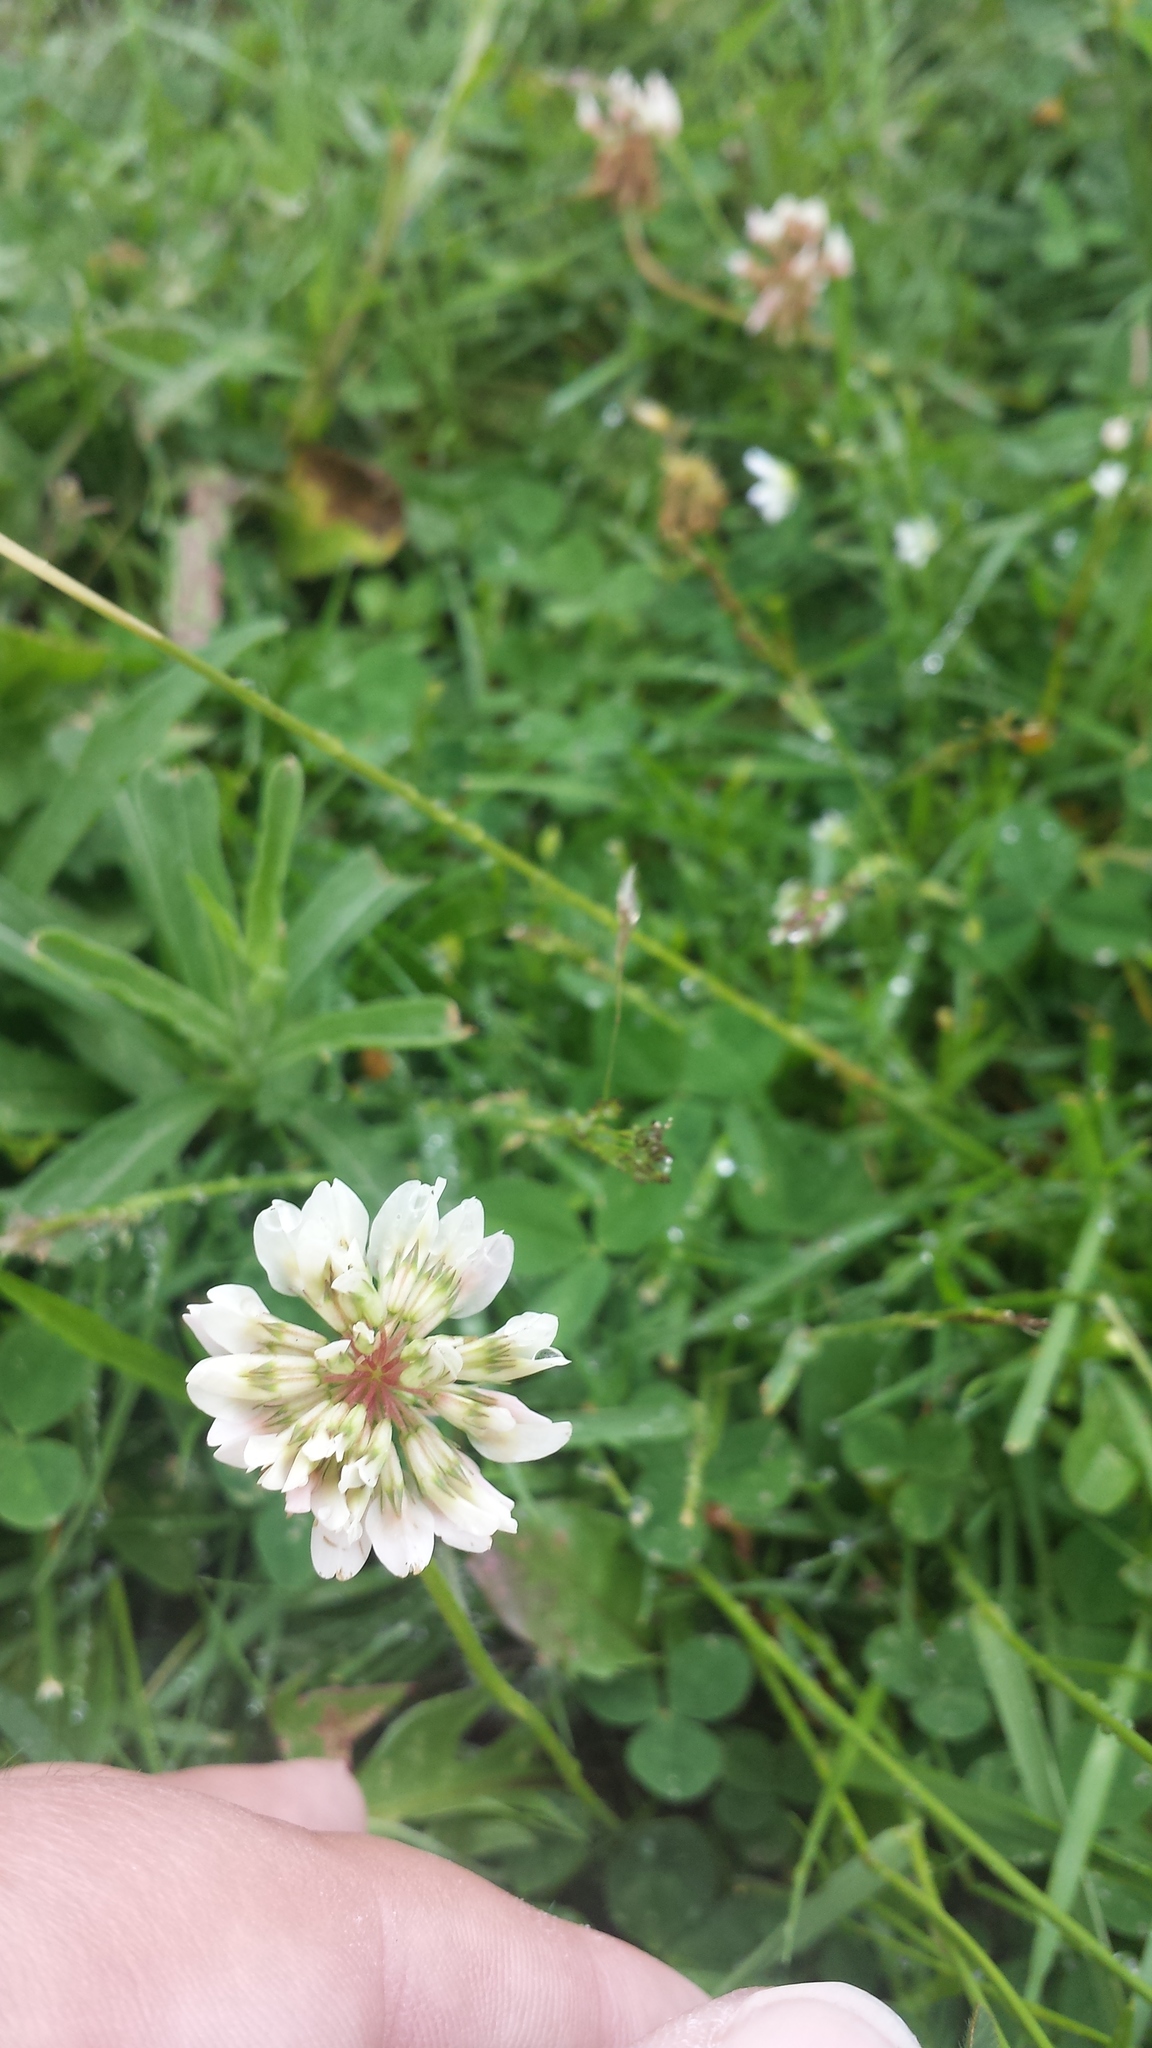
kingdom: Plantae
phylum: Tracheophyta
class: Magnoliopsida
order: Fabales
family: Fabaceae
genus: Trifolium
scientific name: Trifolium repens
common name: White clover
